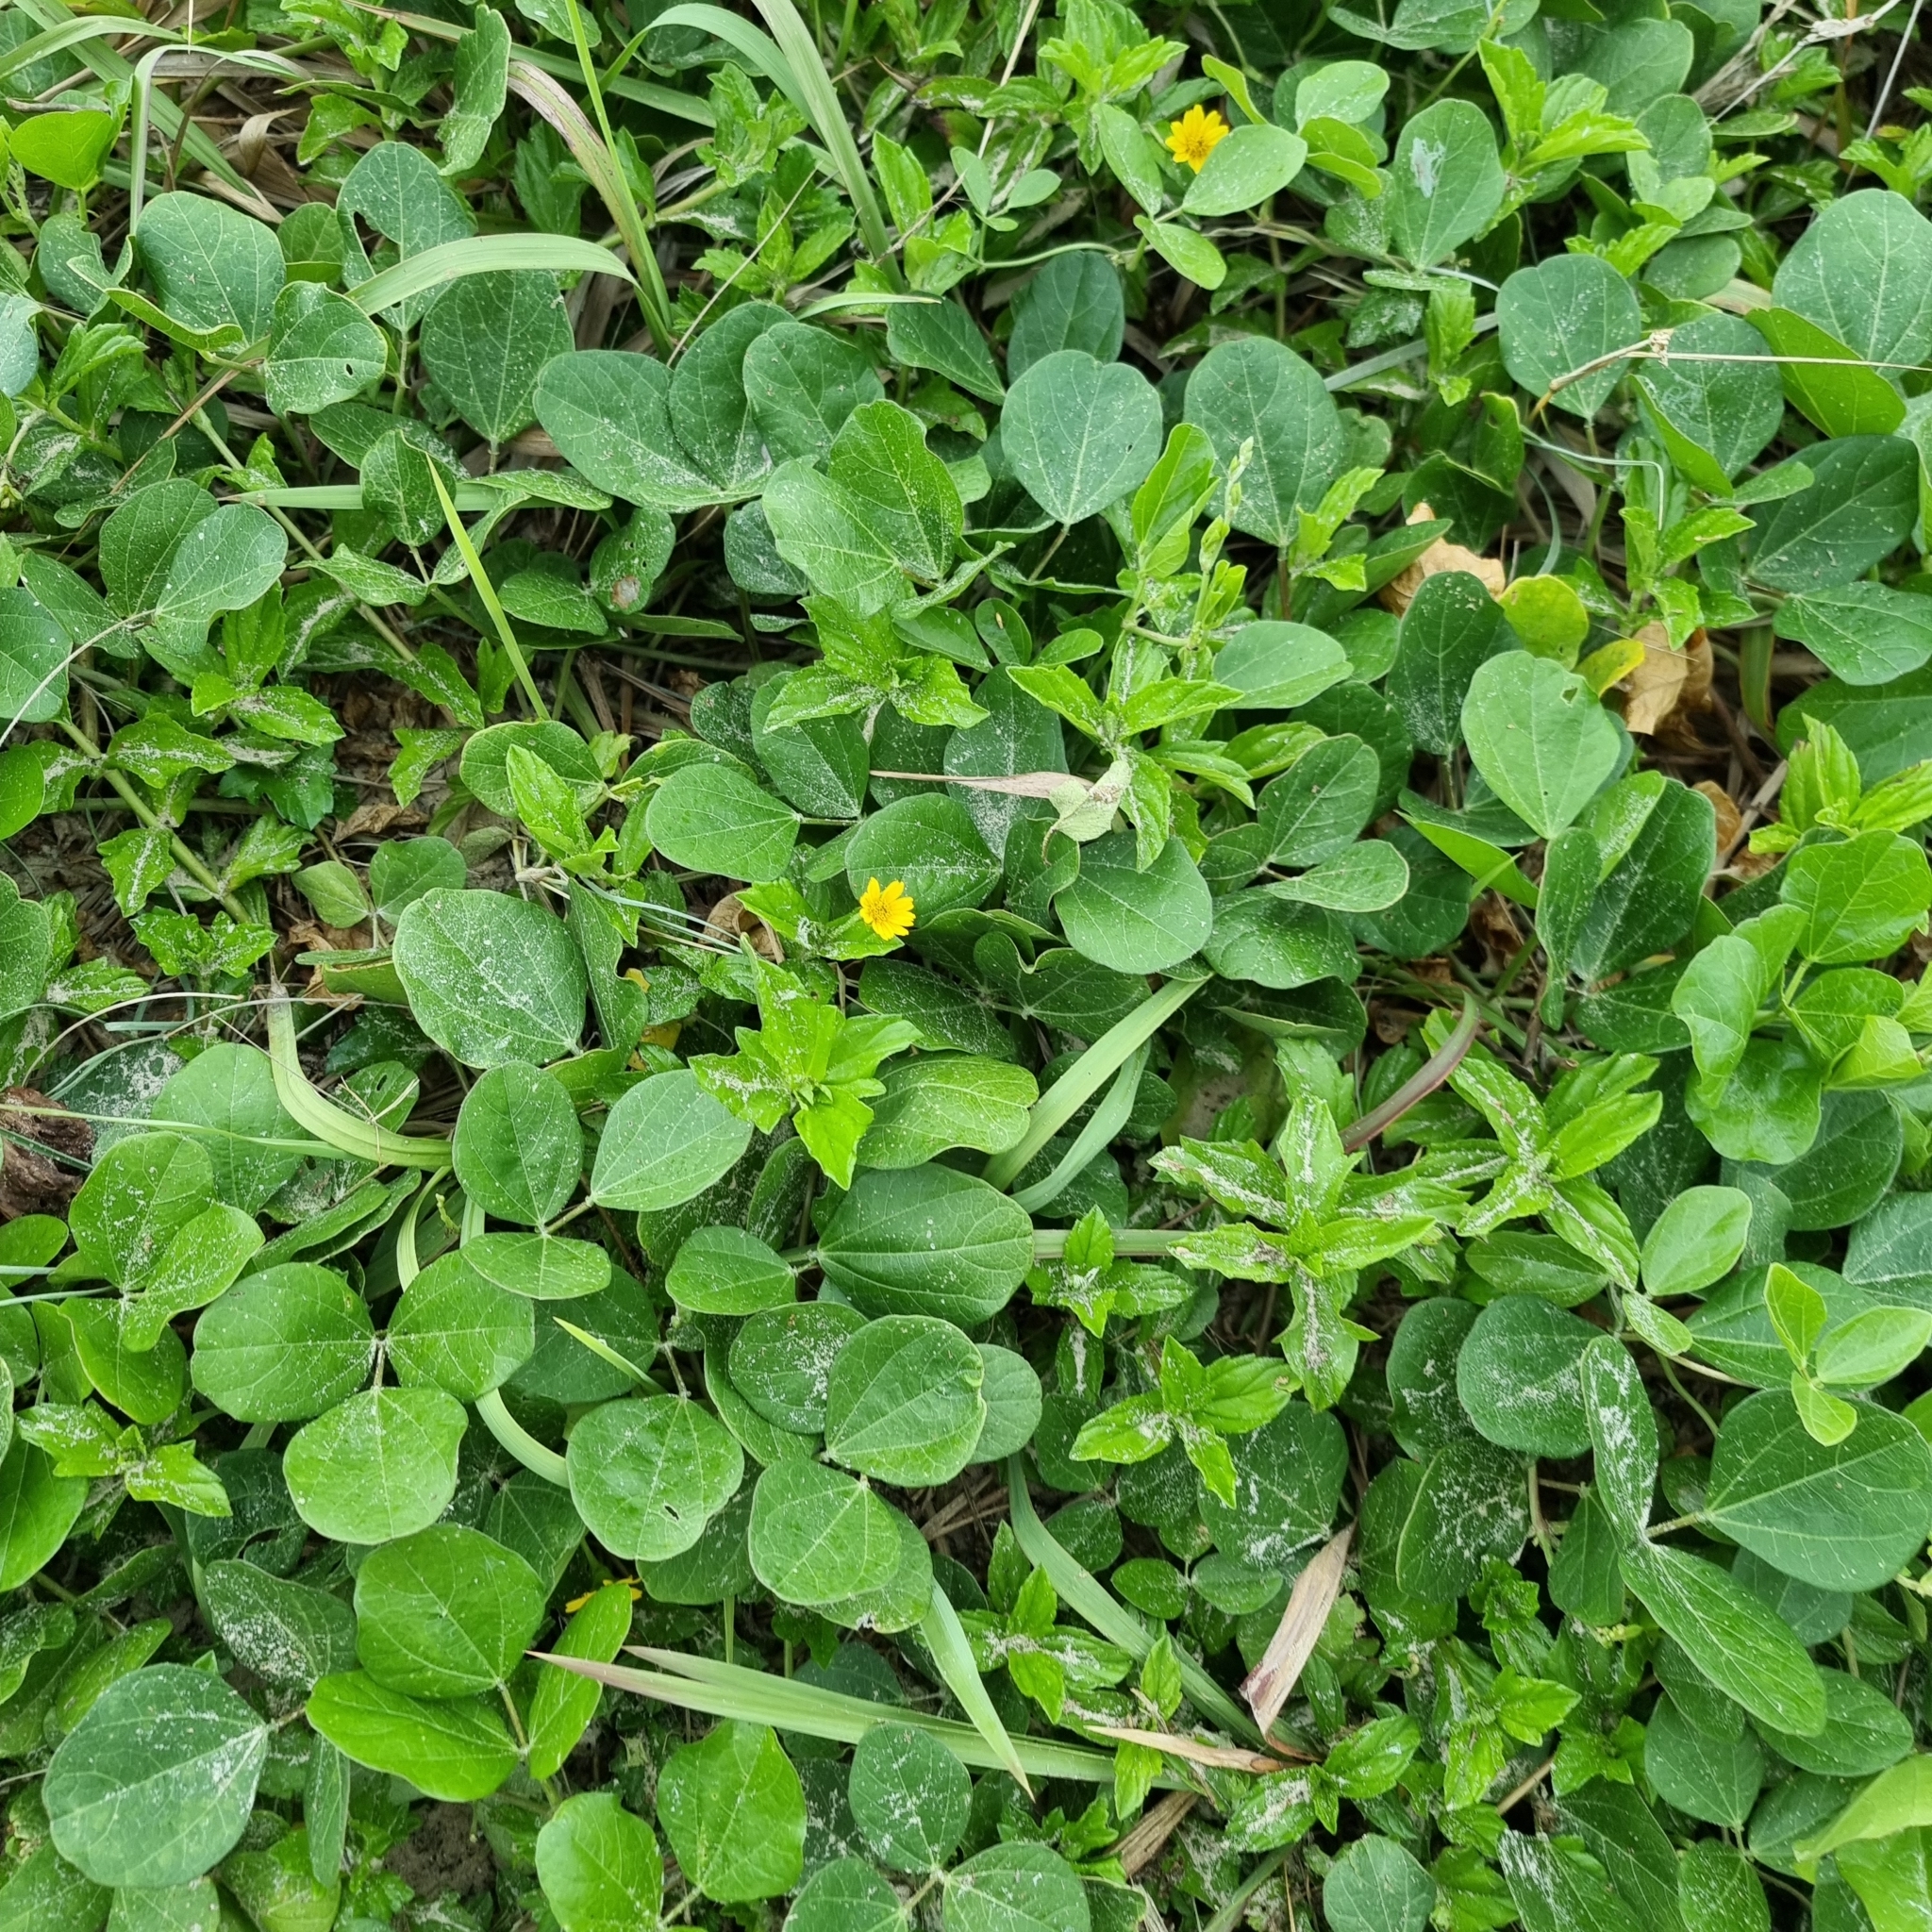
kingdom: Plantae
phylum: Tracheophyta
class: Magnoliopsida
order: Asterales
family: Asteraceae
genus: Sphagneticola
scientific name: Sphagneticola trilobata
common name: Bay biscayne creeping-oxeye
